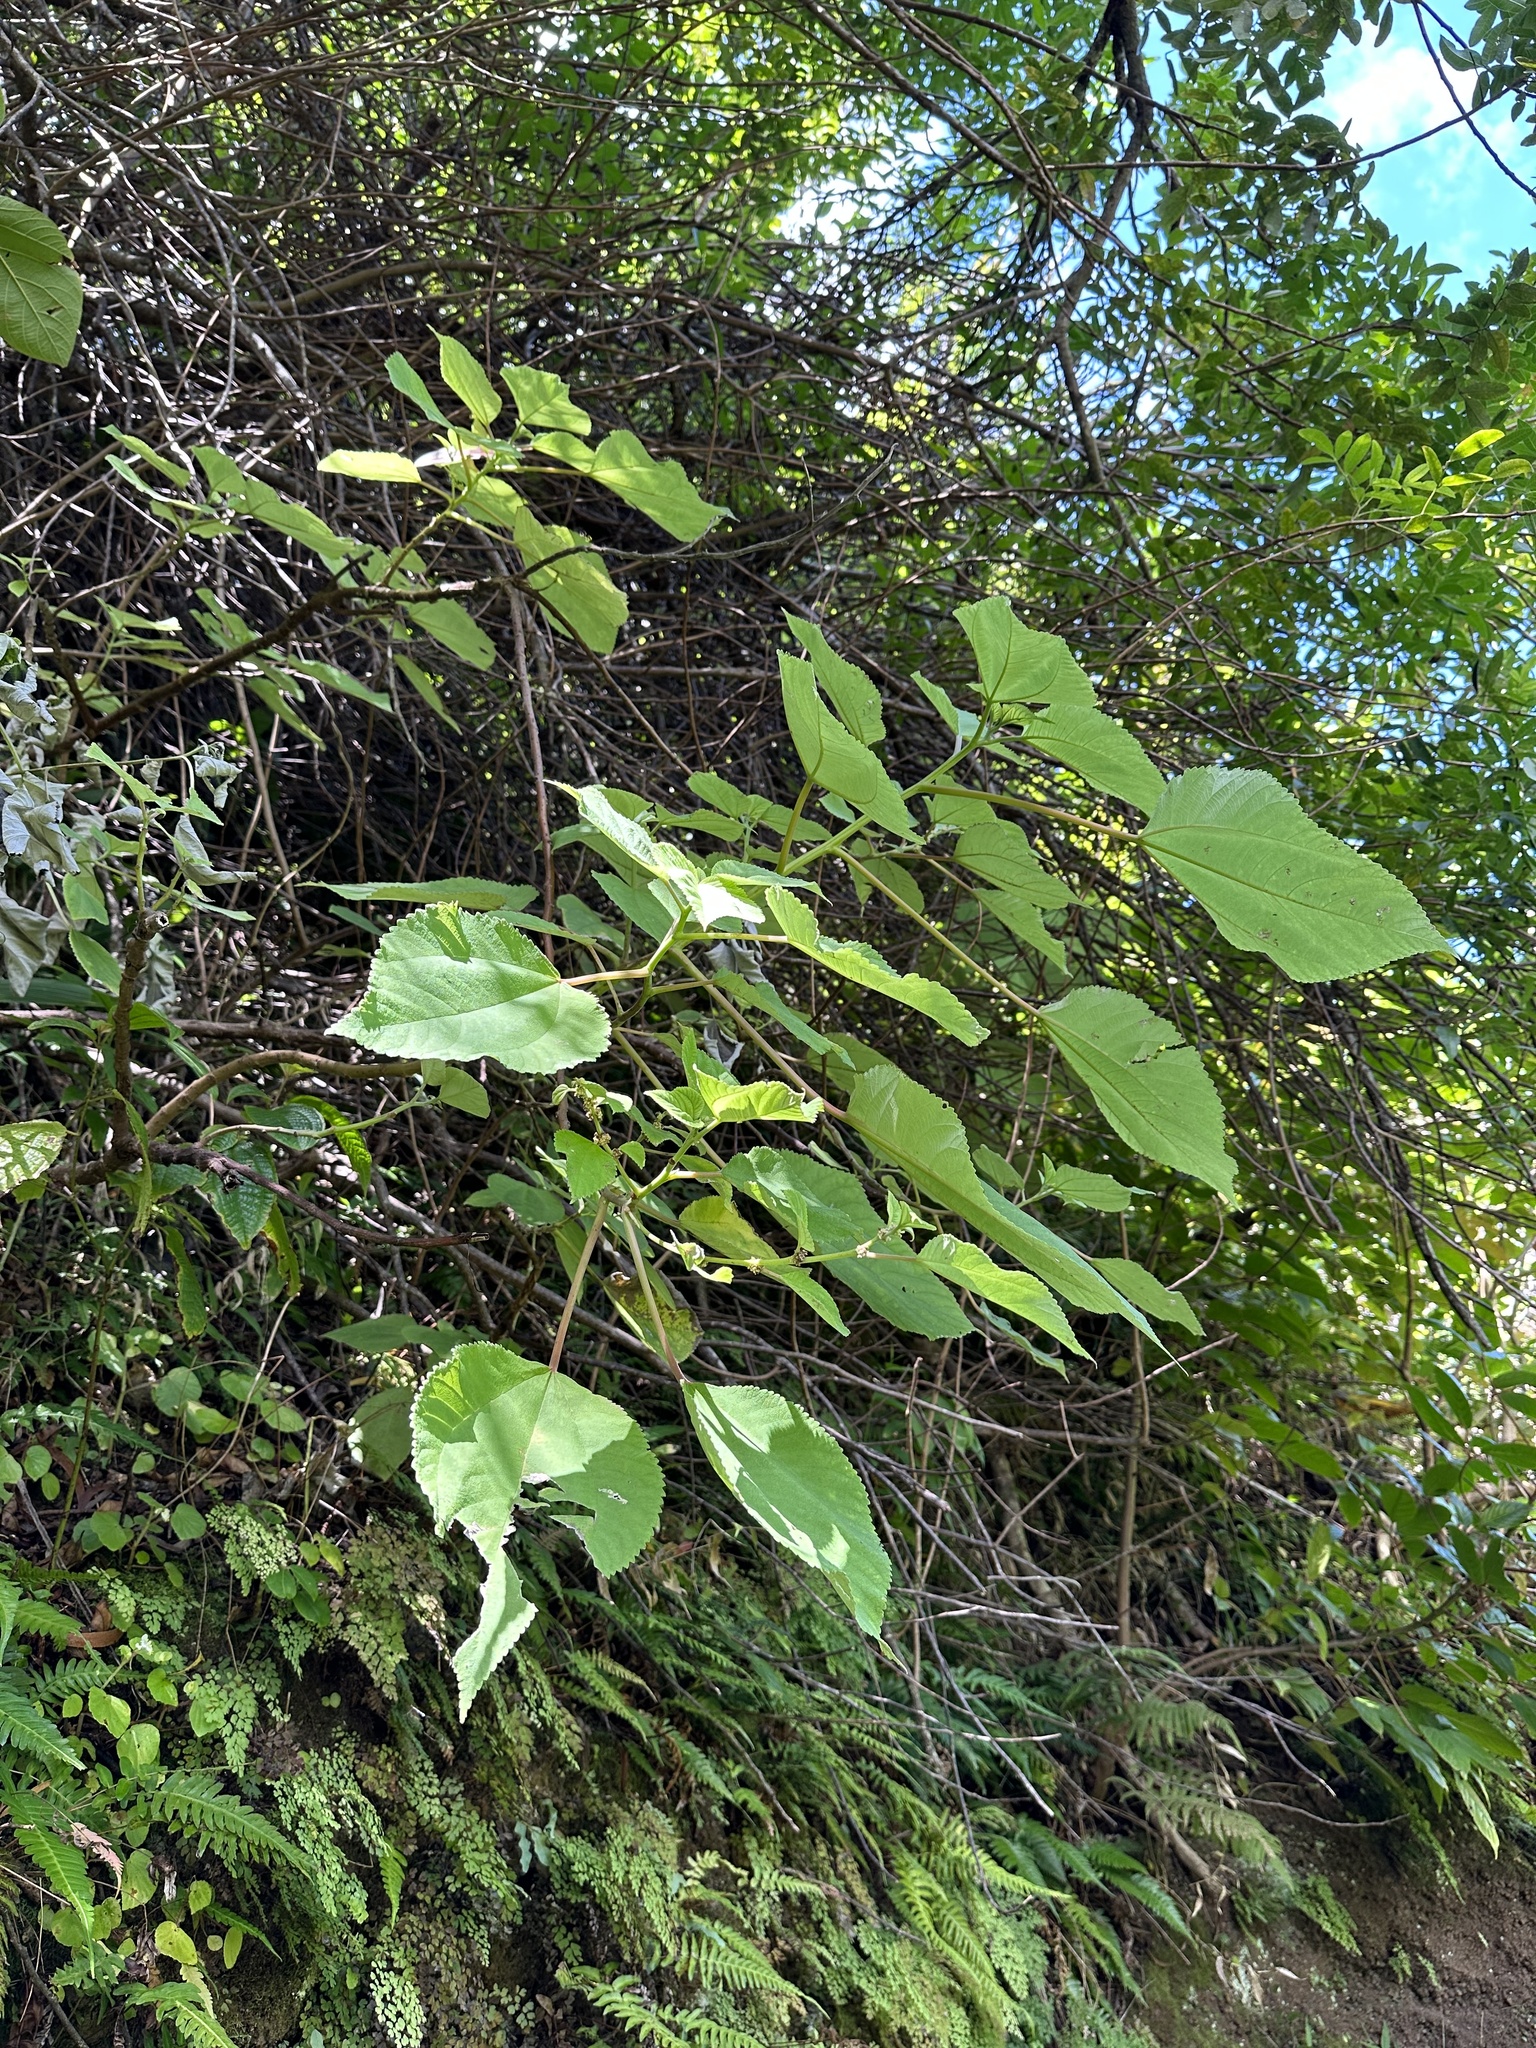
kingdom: Plantae
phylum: Tracheophyta
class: Magnoliopsida
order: Rosales
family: Urticaceae
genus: Pipturus
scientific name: Pipturus albidus
